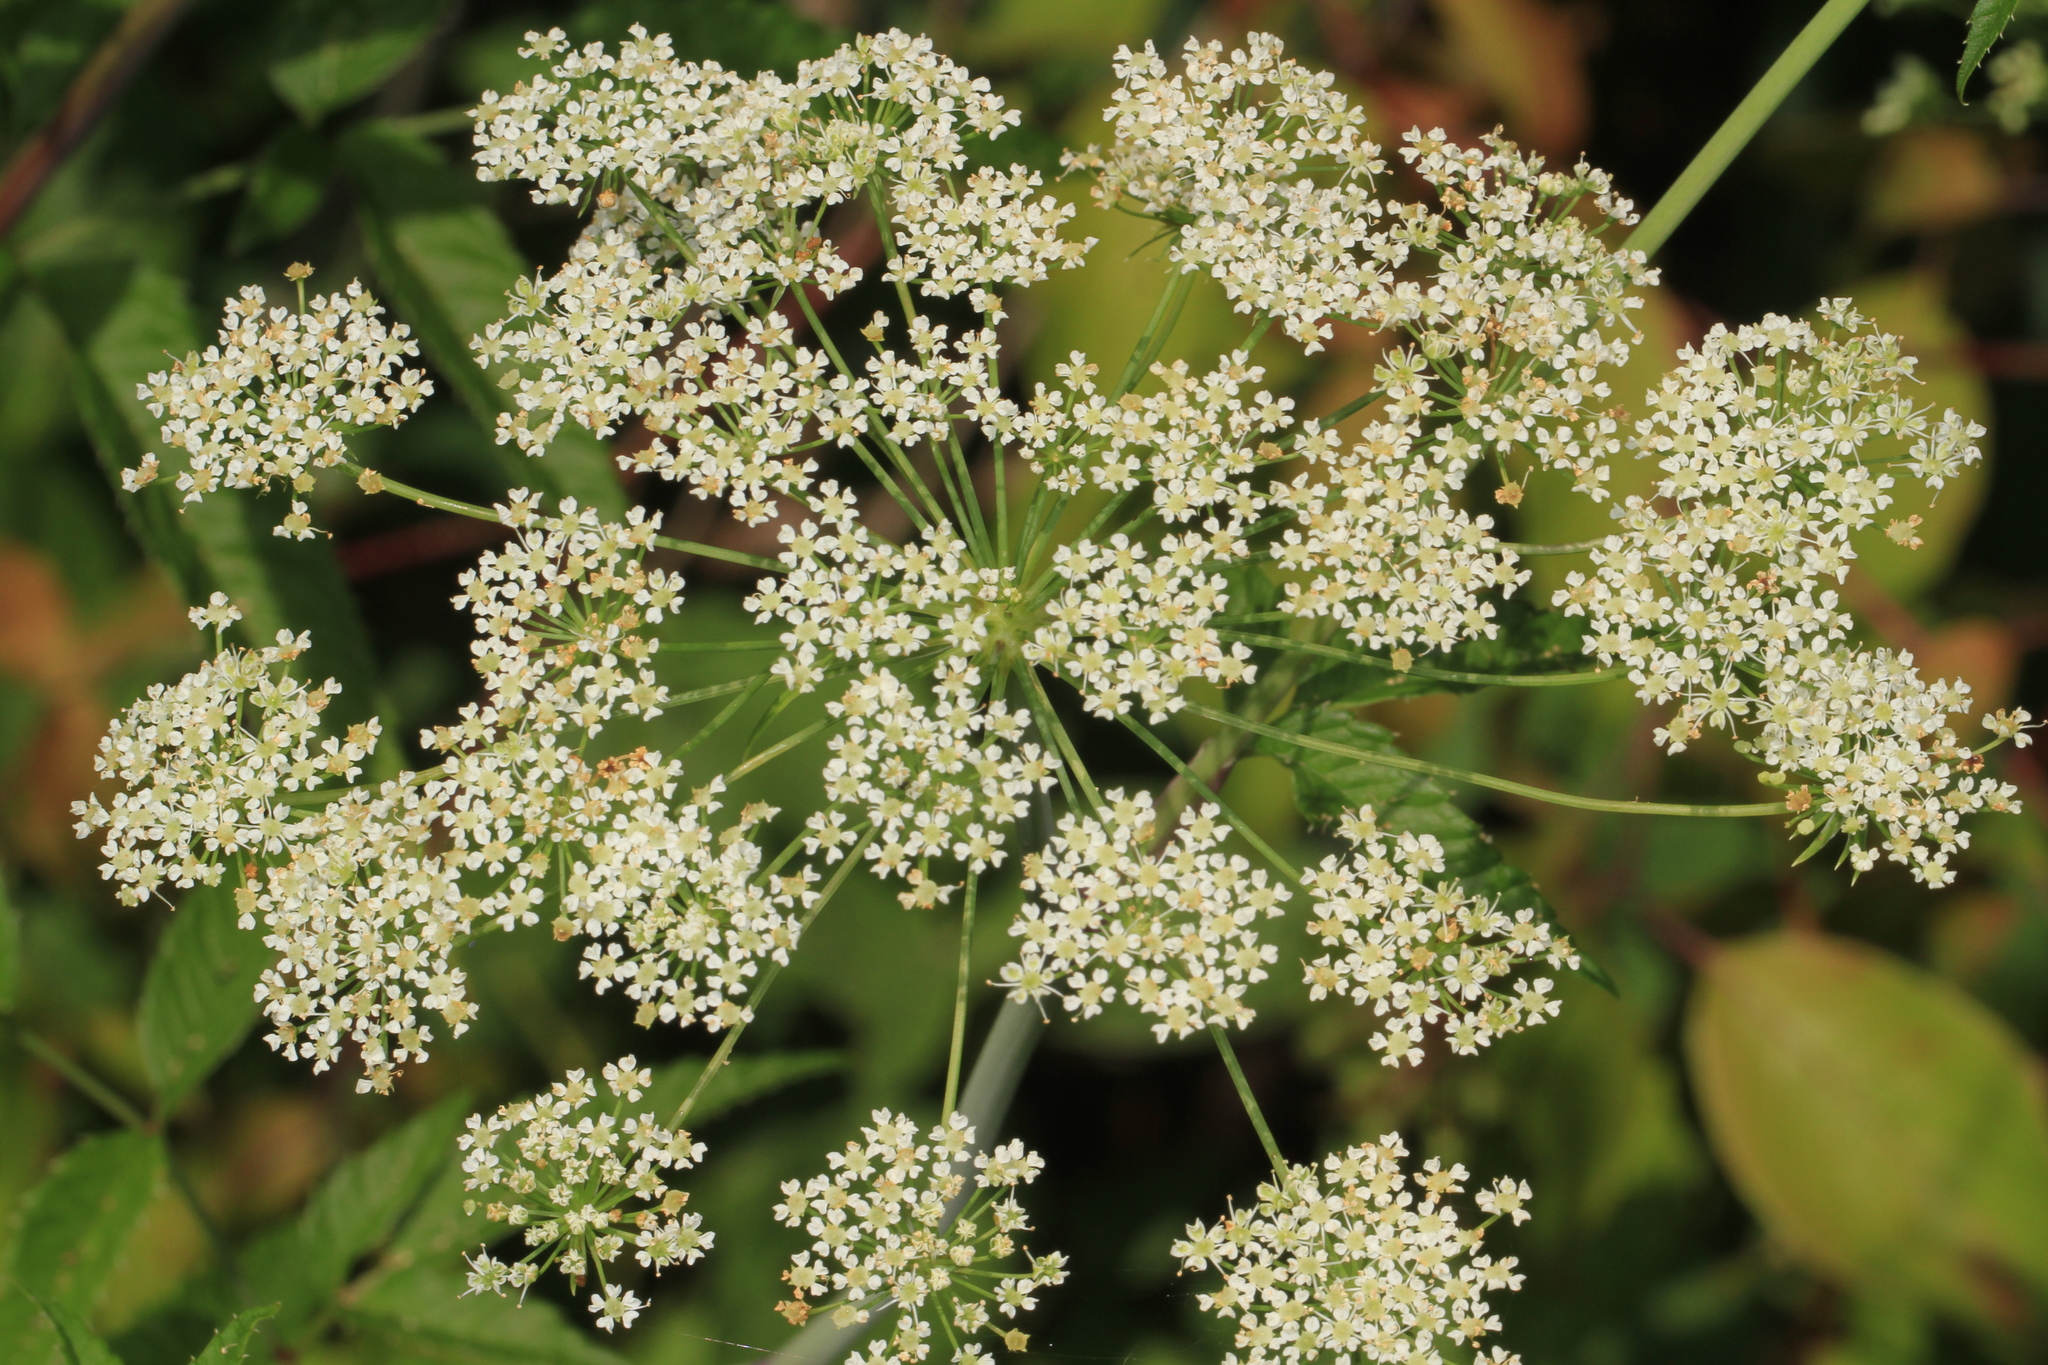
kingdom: Plantae
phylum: Tracheophyta
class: Magnoliopsida
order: Apiales
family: Apiaceae
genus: Cicuta
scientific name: Cicuta maculata
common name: Spotted cowbane
